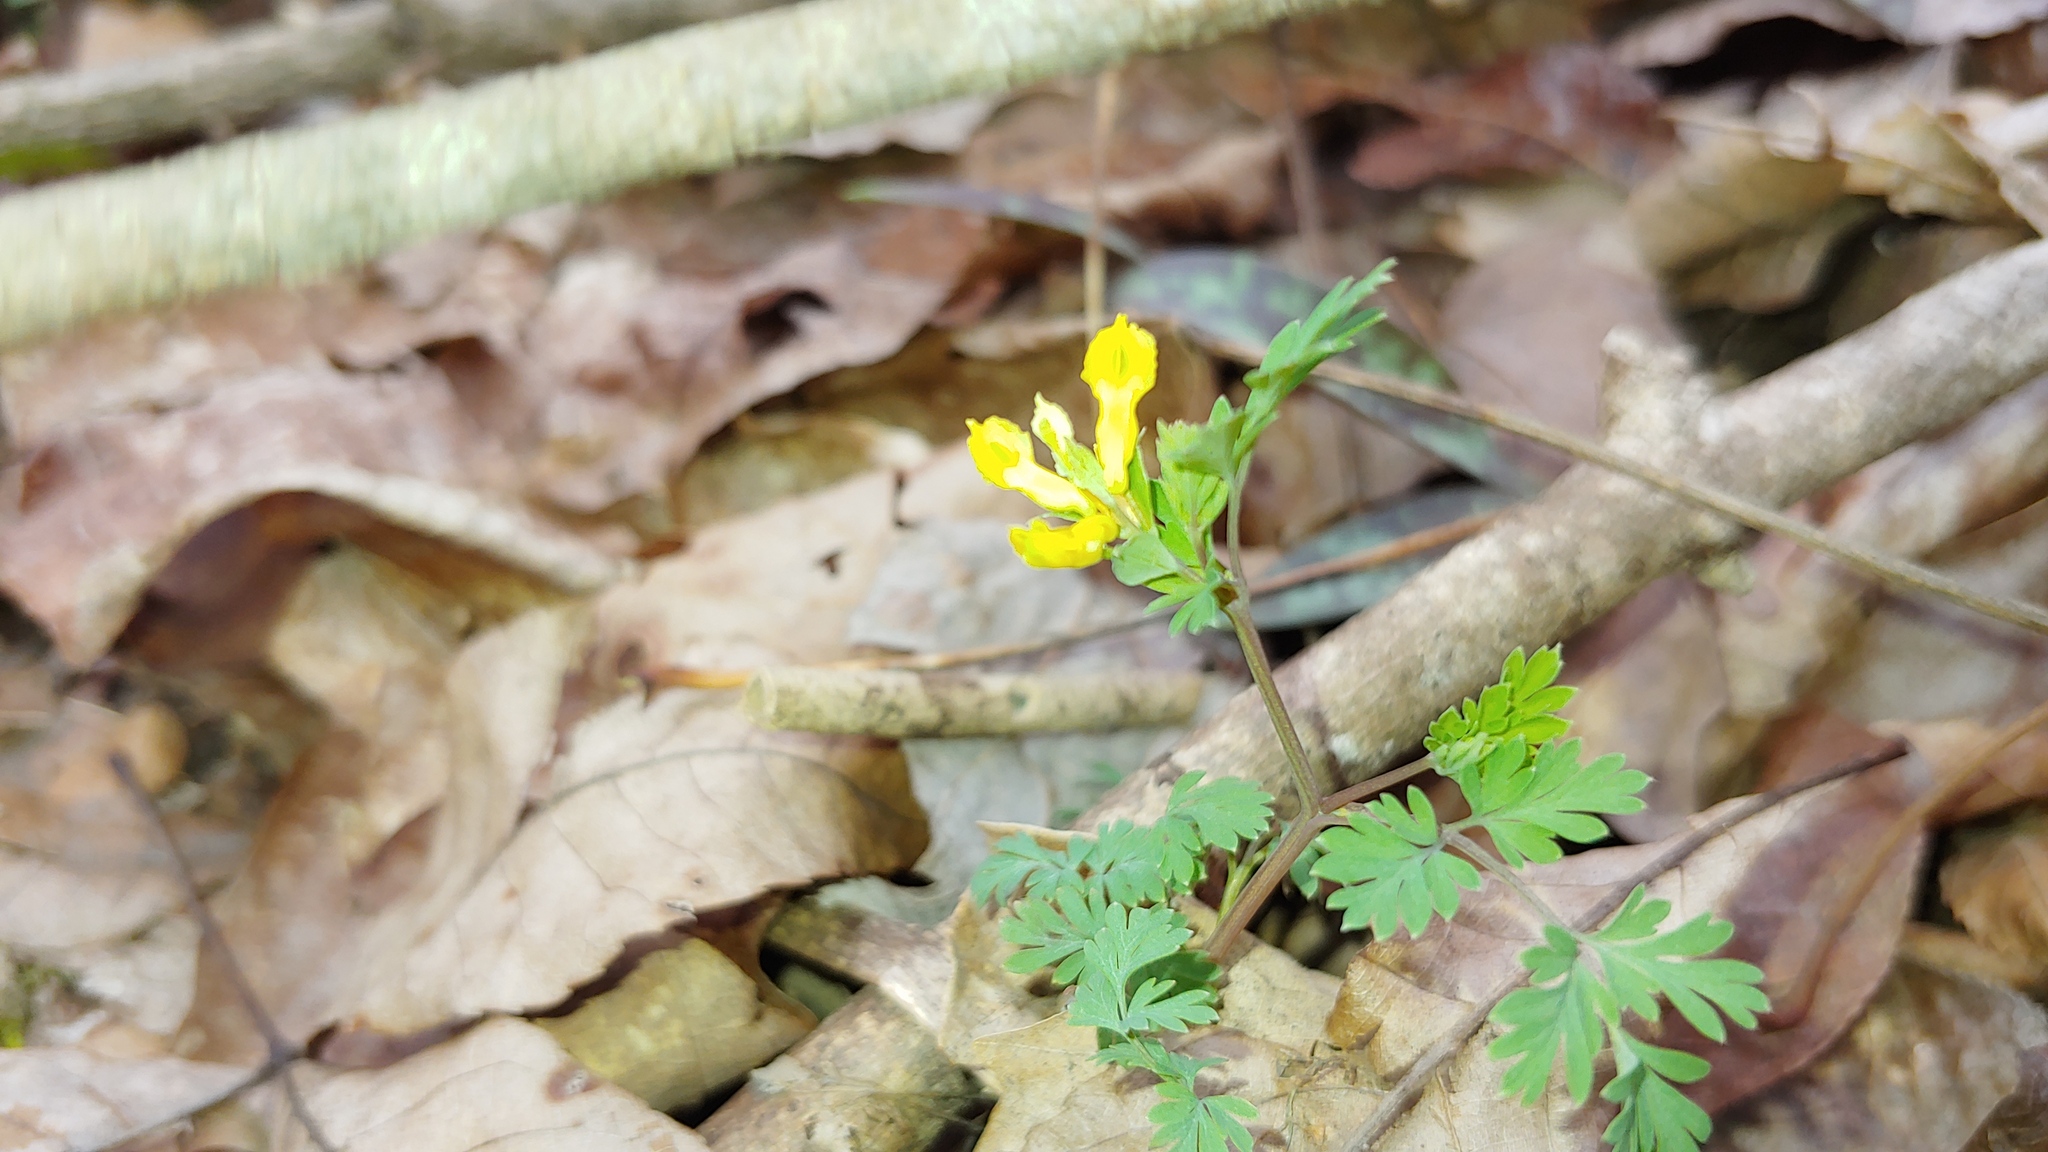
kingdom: Plantae
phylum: Tracheophyta
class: Magnoliopsida
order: Ranunculales
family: Papaveraceae
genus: Corydalis
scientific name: Corydalis flavula
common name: Yellow corydalis
